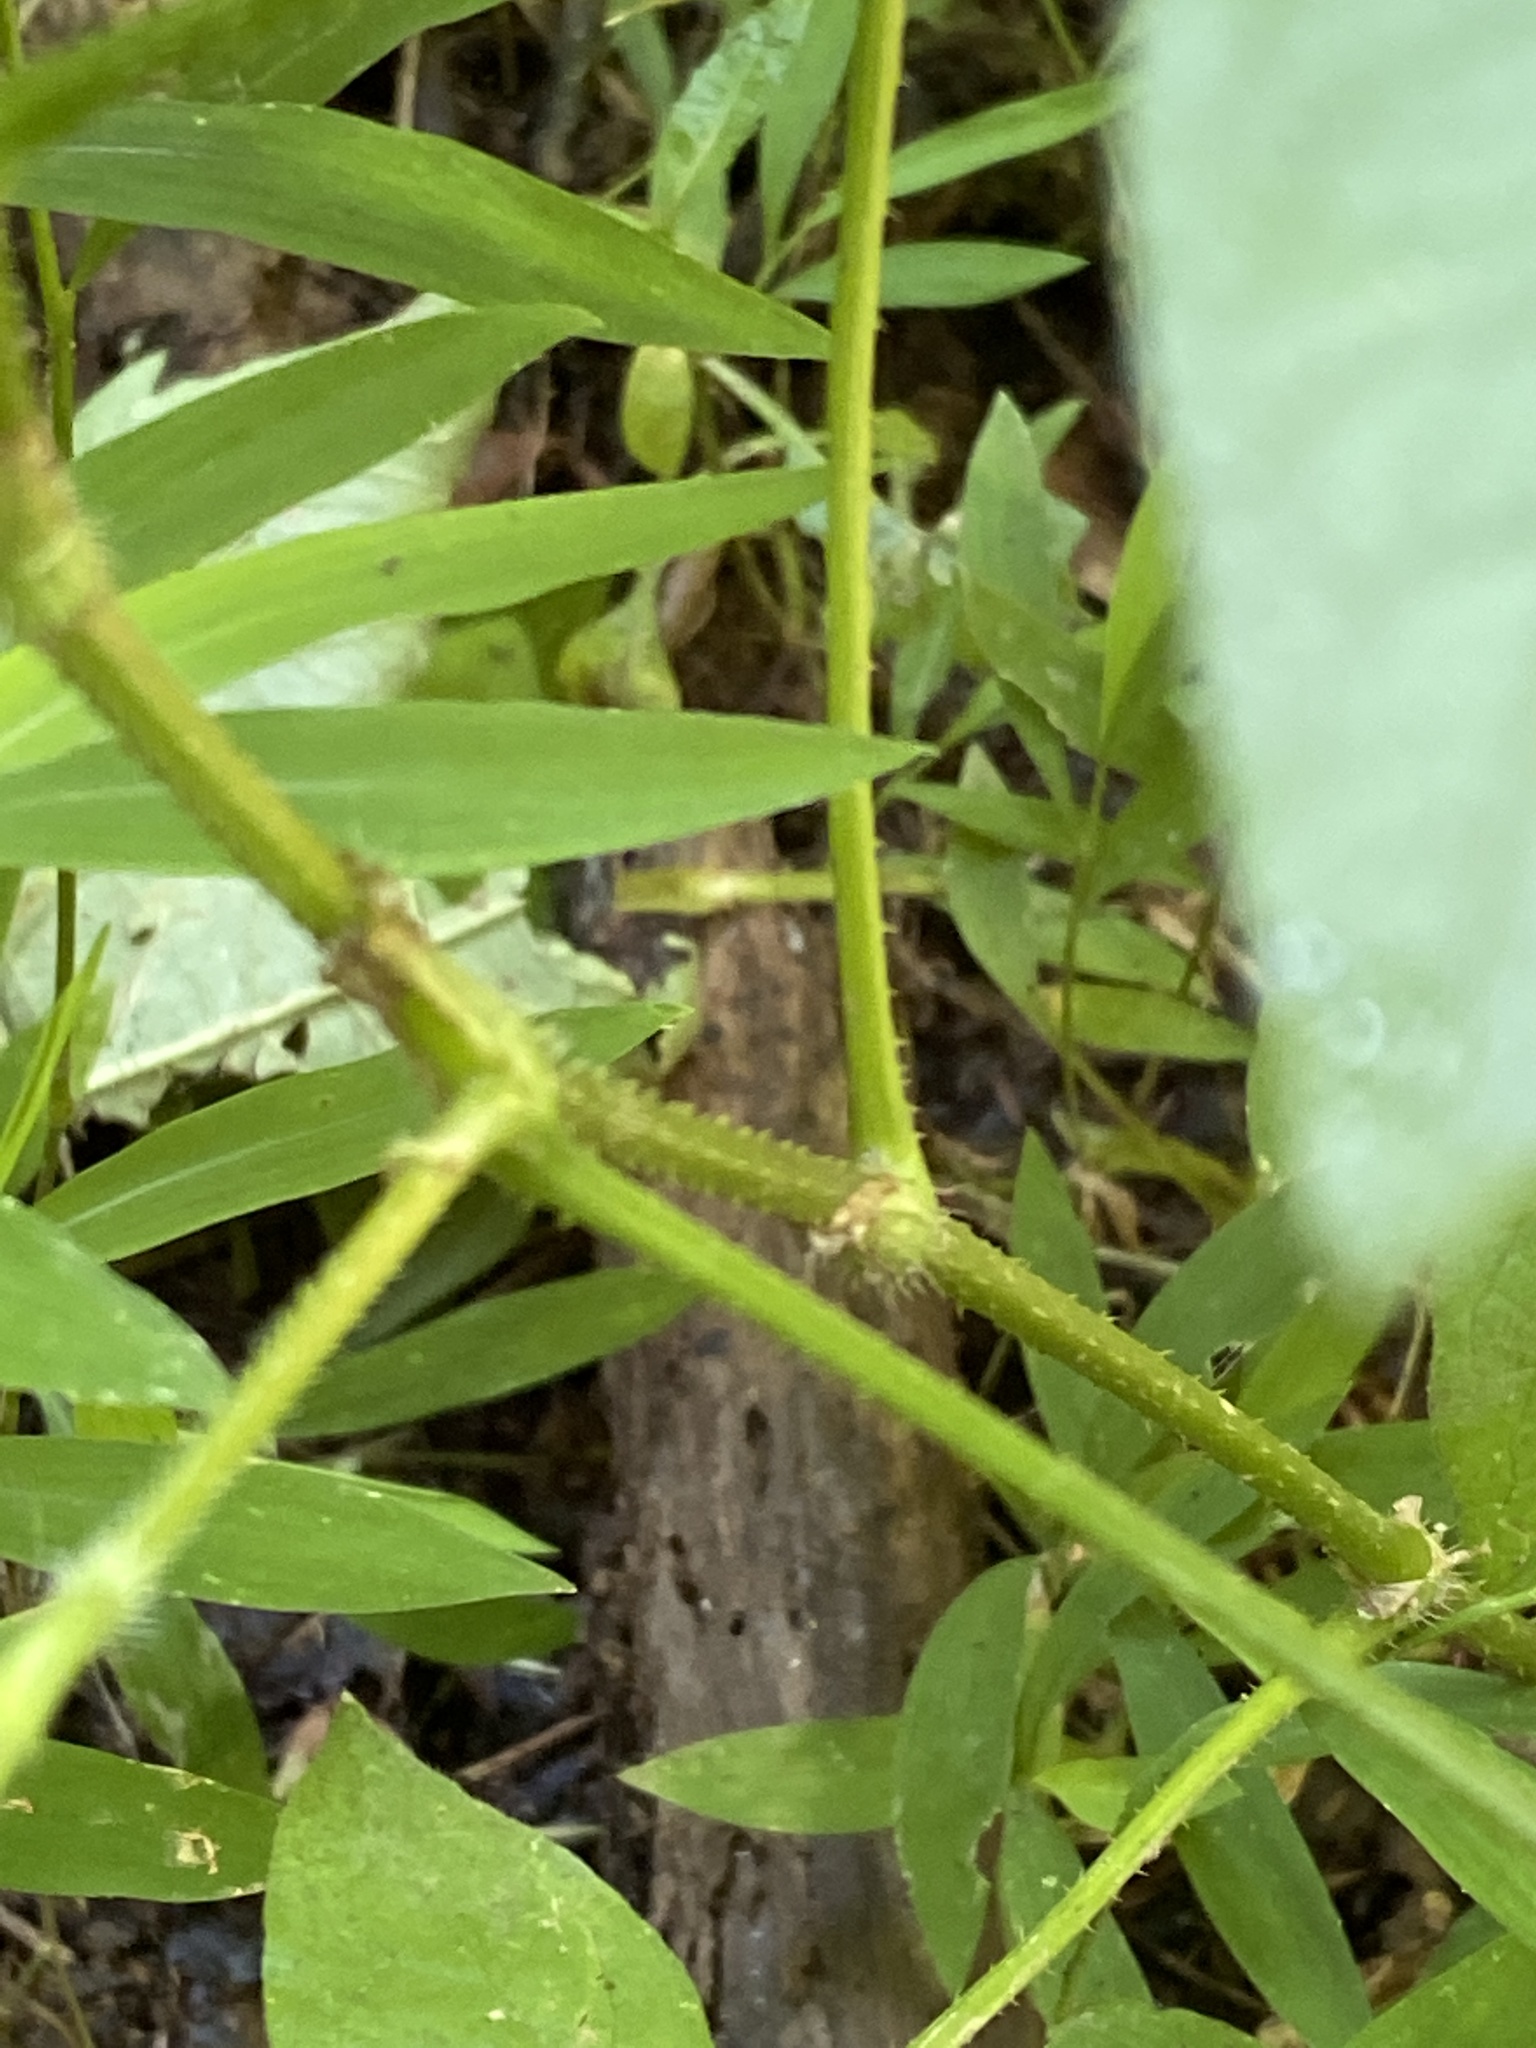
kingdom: Plantae
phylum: Tracheophyta
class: Magnoliopsida
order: Caryophyllales
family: Polygonaceae
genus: Persicaria
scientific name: Persicaria arifolia
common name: Halberd-leaved tear-thumb
